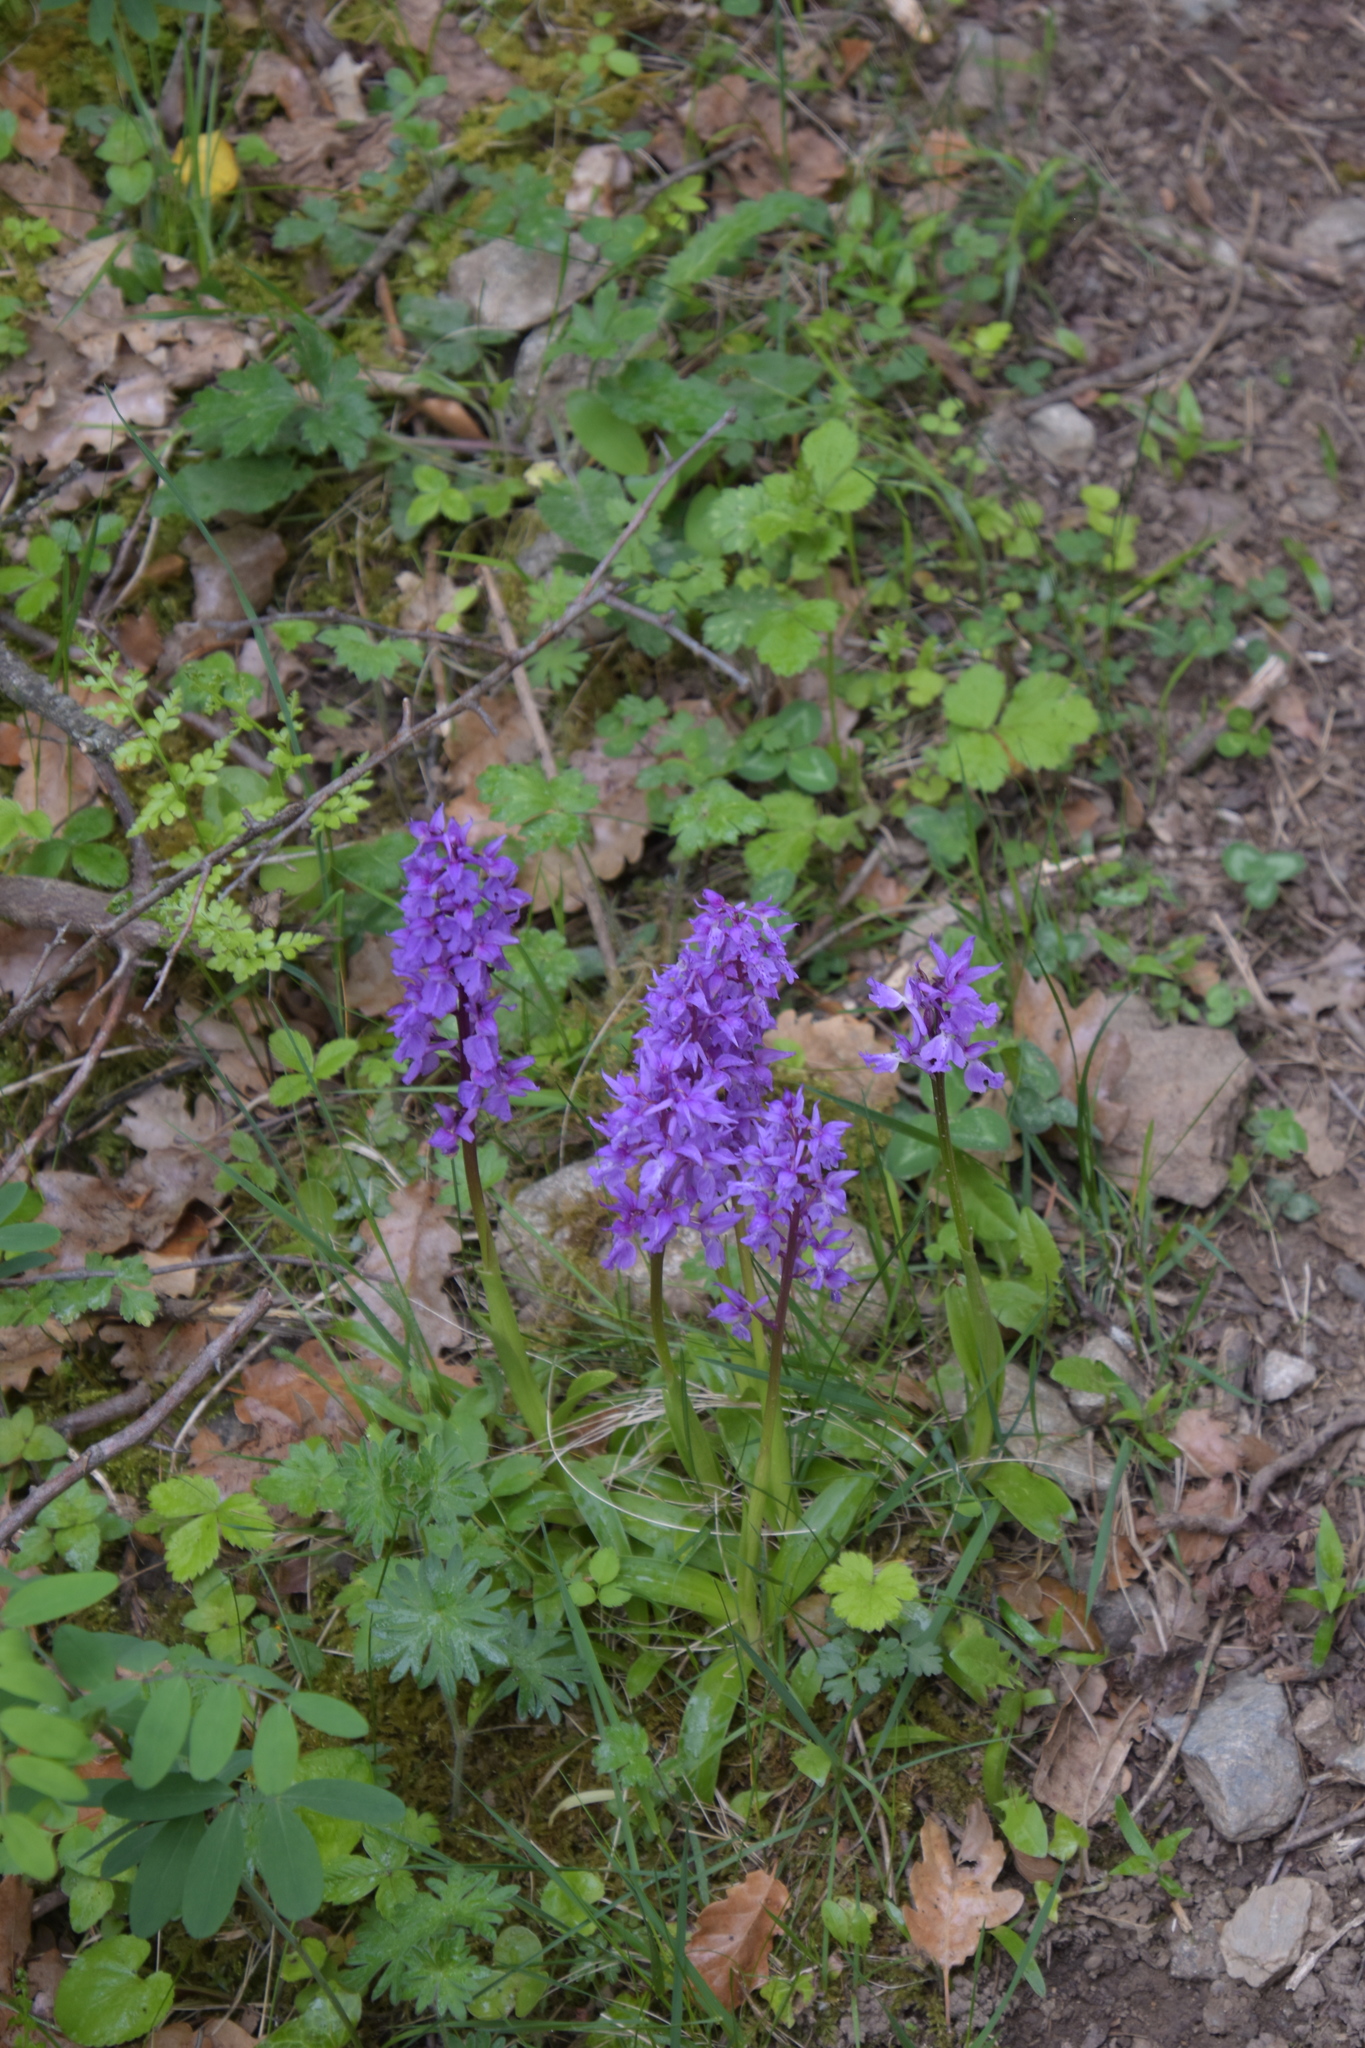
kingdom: Plantae
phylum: Tracheophyta
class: Liliopsida
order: Asparagales
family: Orchidaceae
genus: Orchis
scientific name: Orchis mascula
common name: Early-purple orchid
